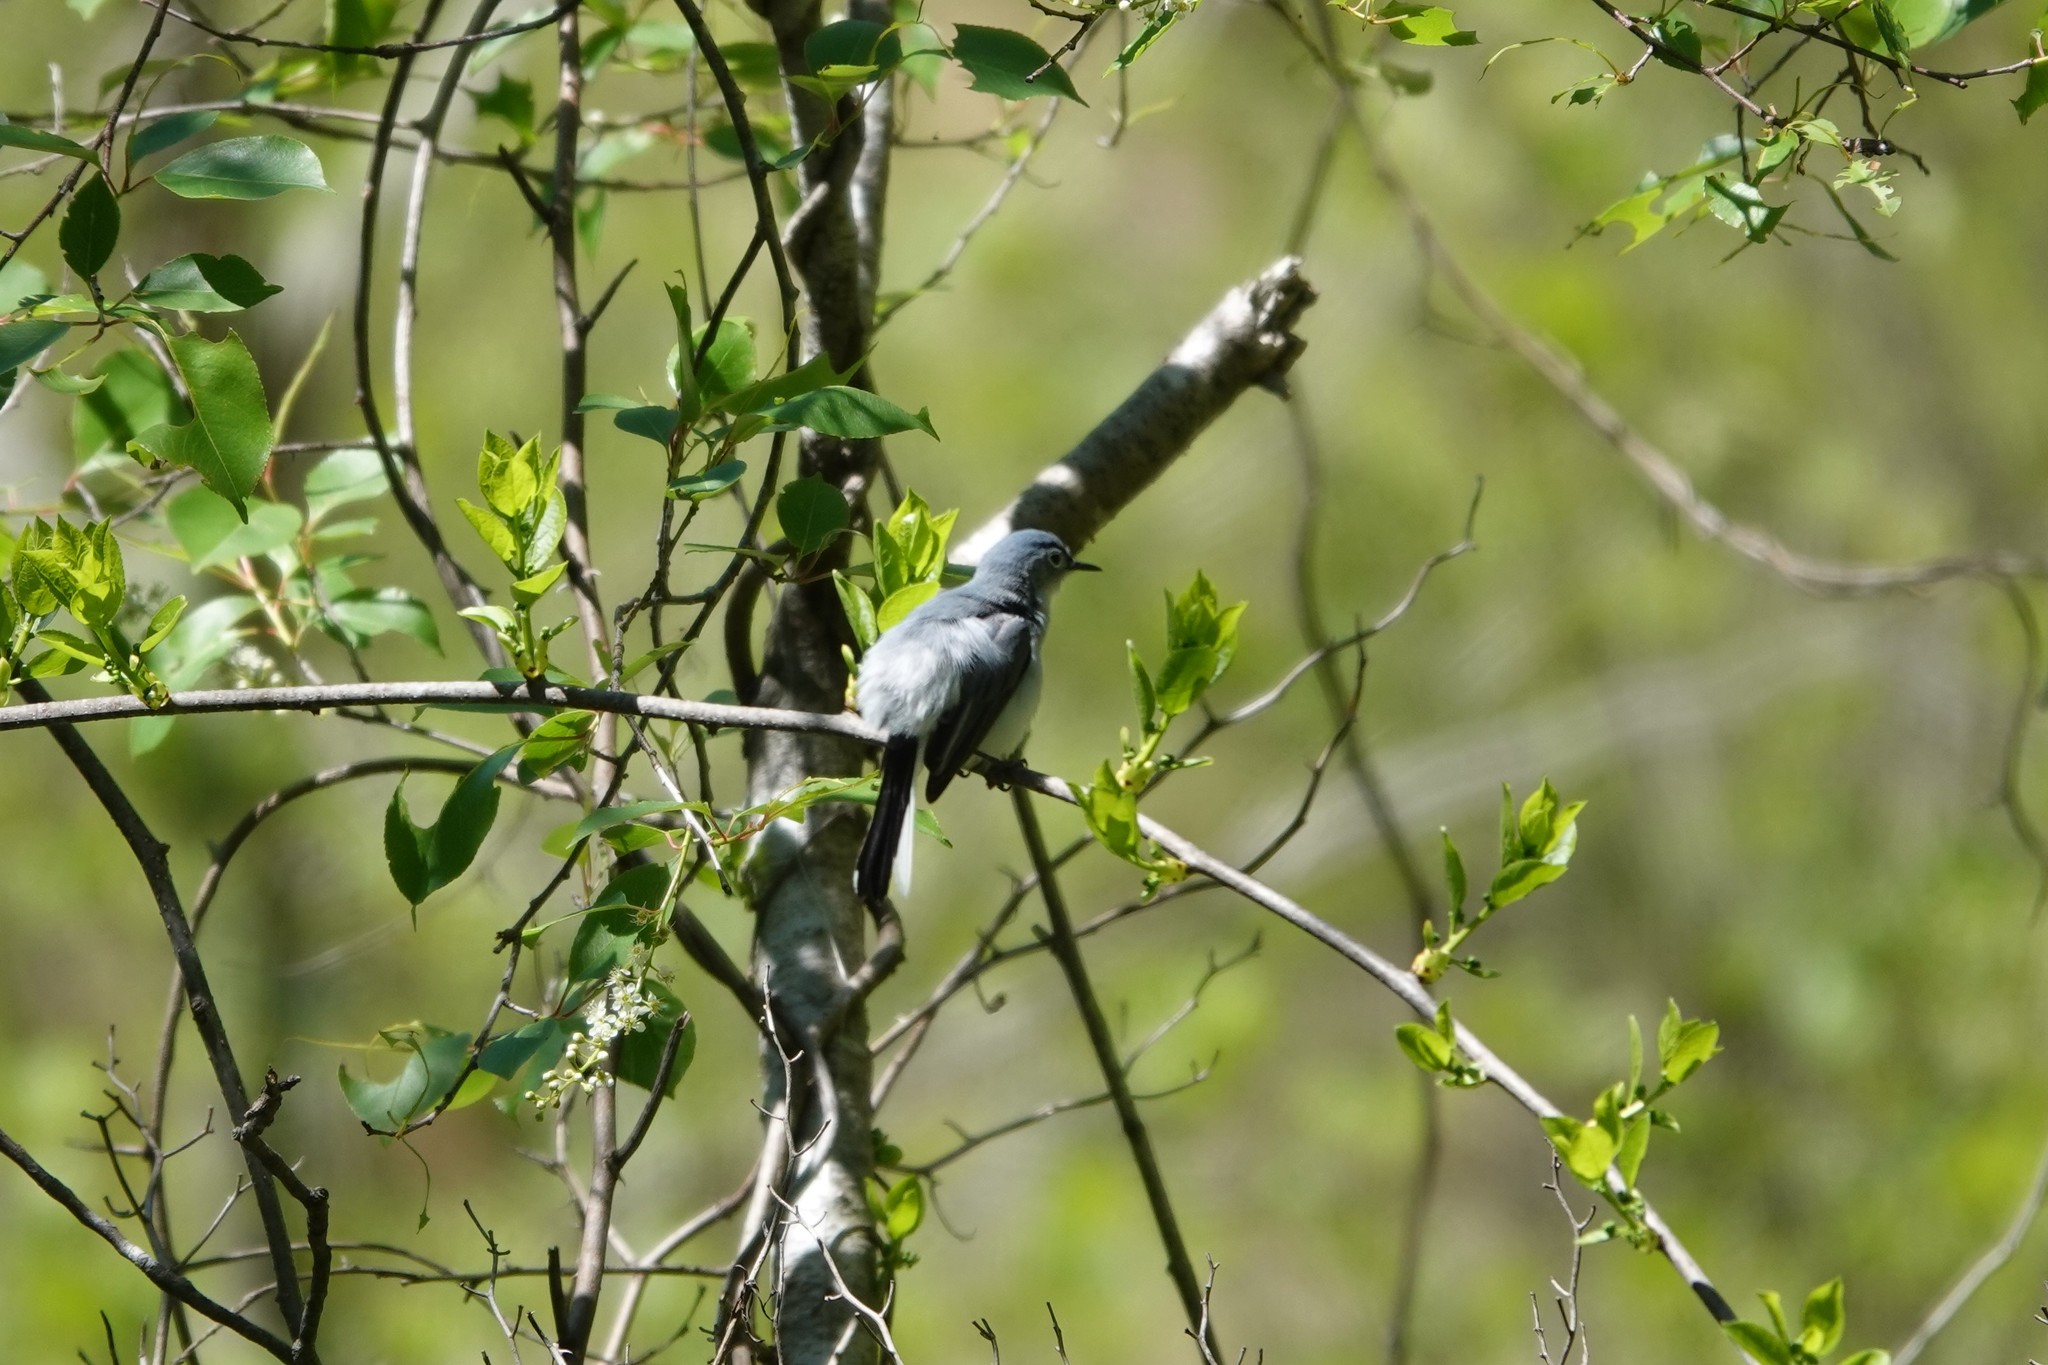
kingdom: Animalia
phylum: Chordata
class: Aves
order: Passeriformes
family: Polioptilidae
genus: Polioptila
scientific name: Polioptila caerulea
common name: Blue-gray gnatcatcher
